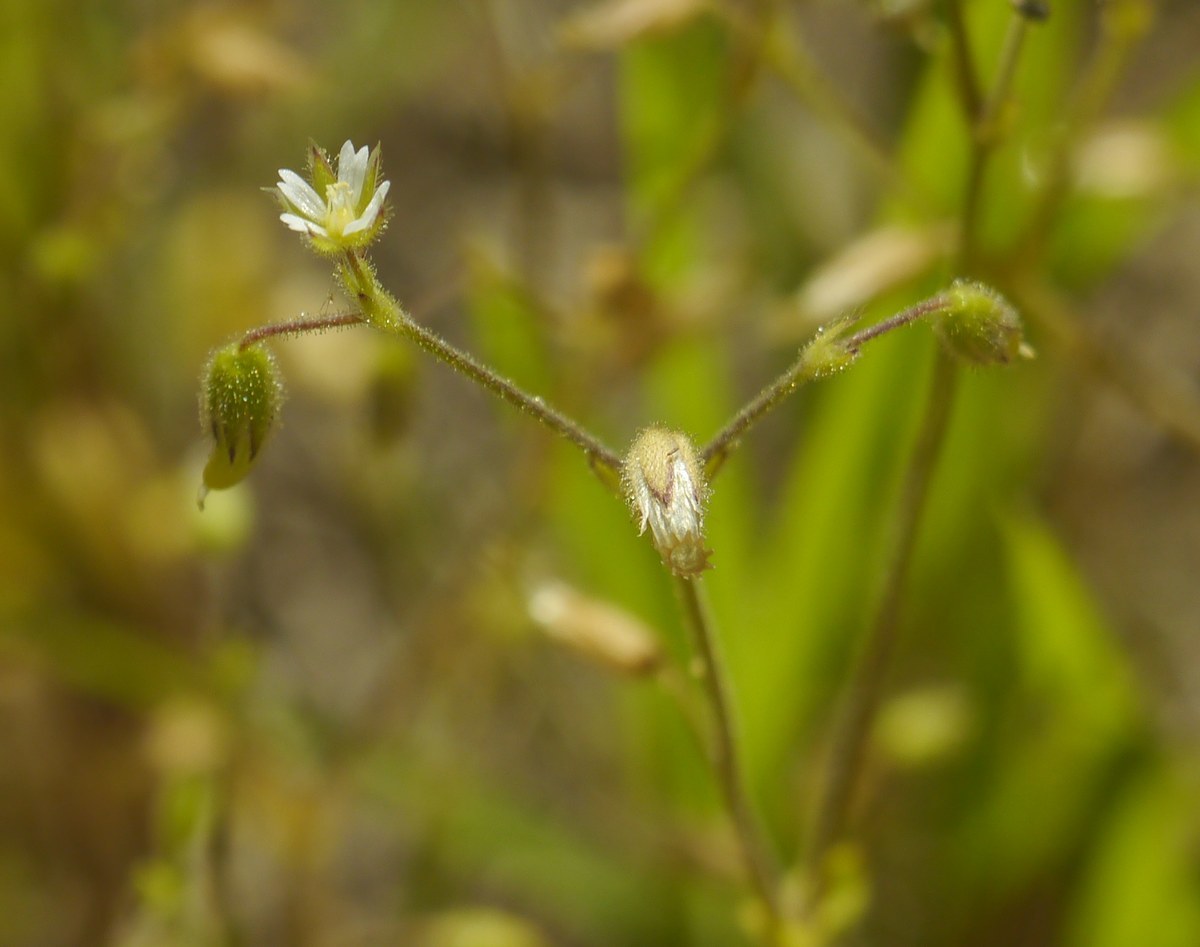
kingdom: Plantae
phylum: Tracheophyta
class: Magnoliopsida
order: Caryophyllales
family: Caryophyllaceae
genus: Cerastium
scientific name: Cerastium glutinosum
